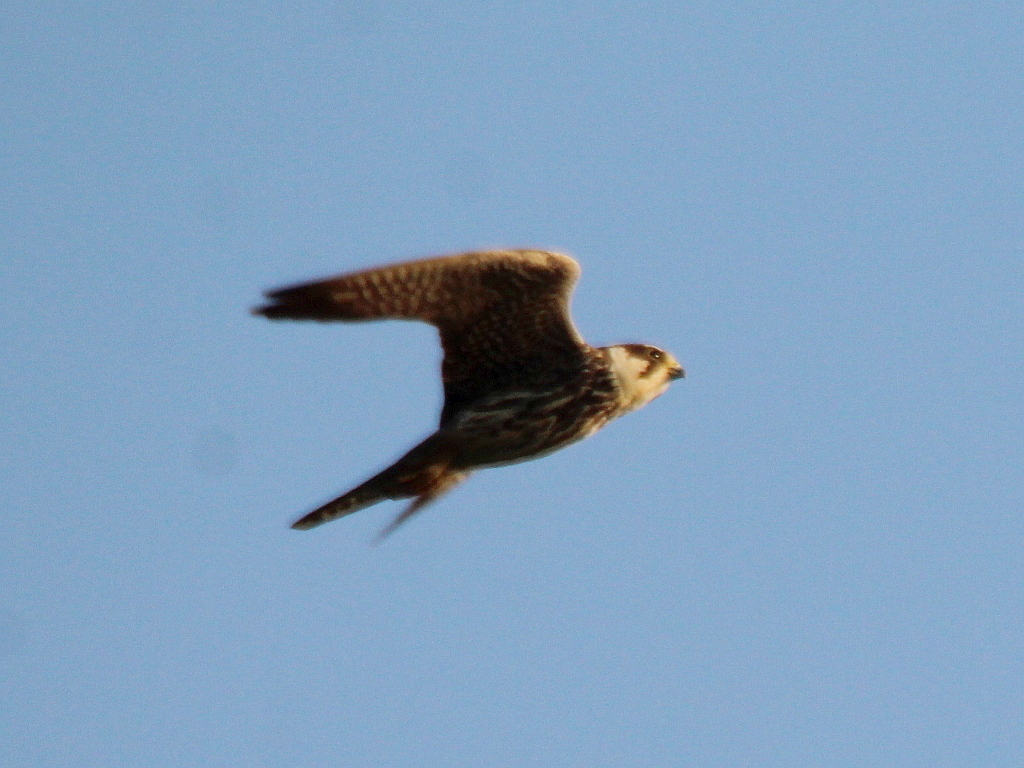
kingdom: Animalia
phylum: Chordata
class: Aves
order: Falconiformes
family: Falconidae
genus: Falco
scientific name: Falco subbuteo
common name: Eurasian hobby
